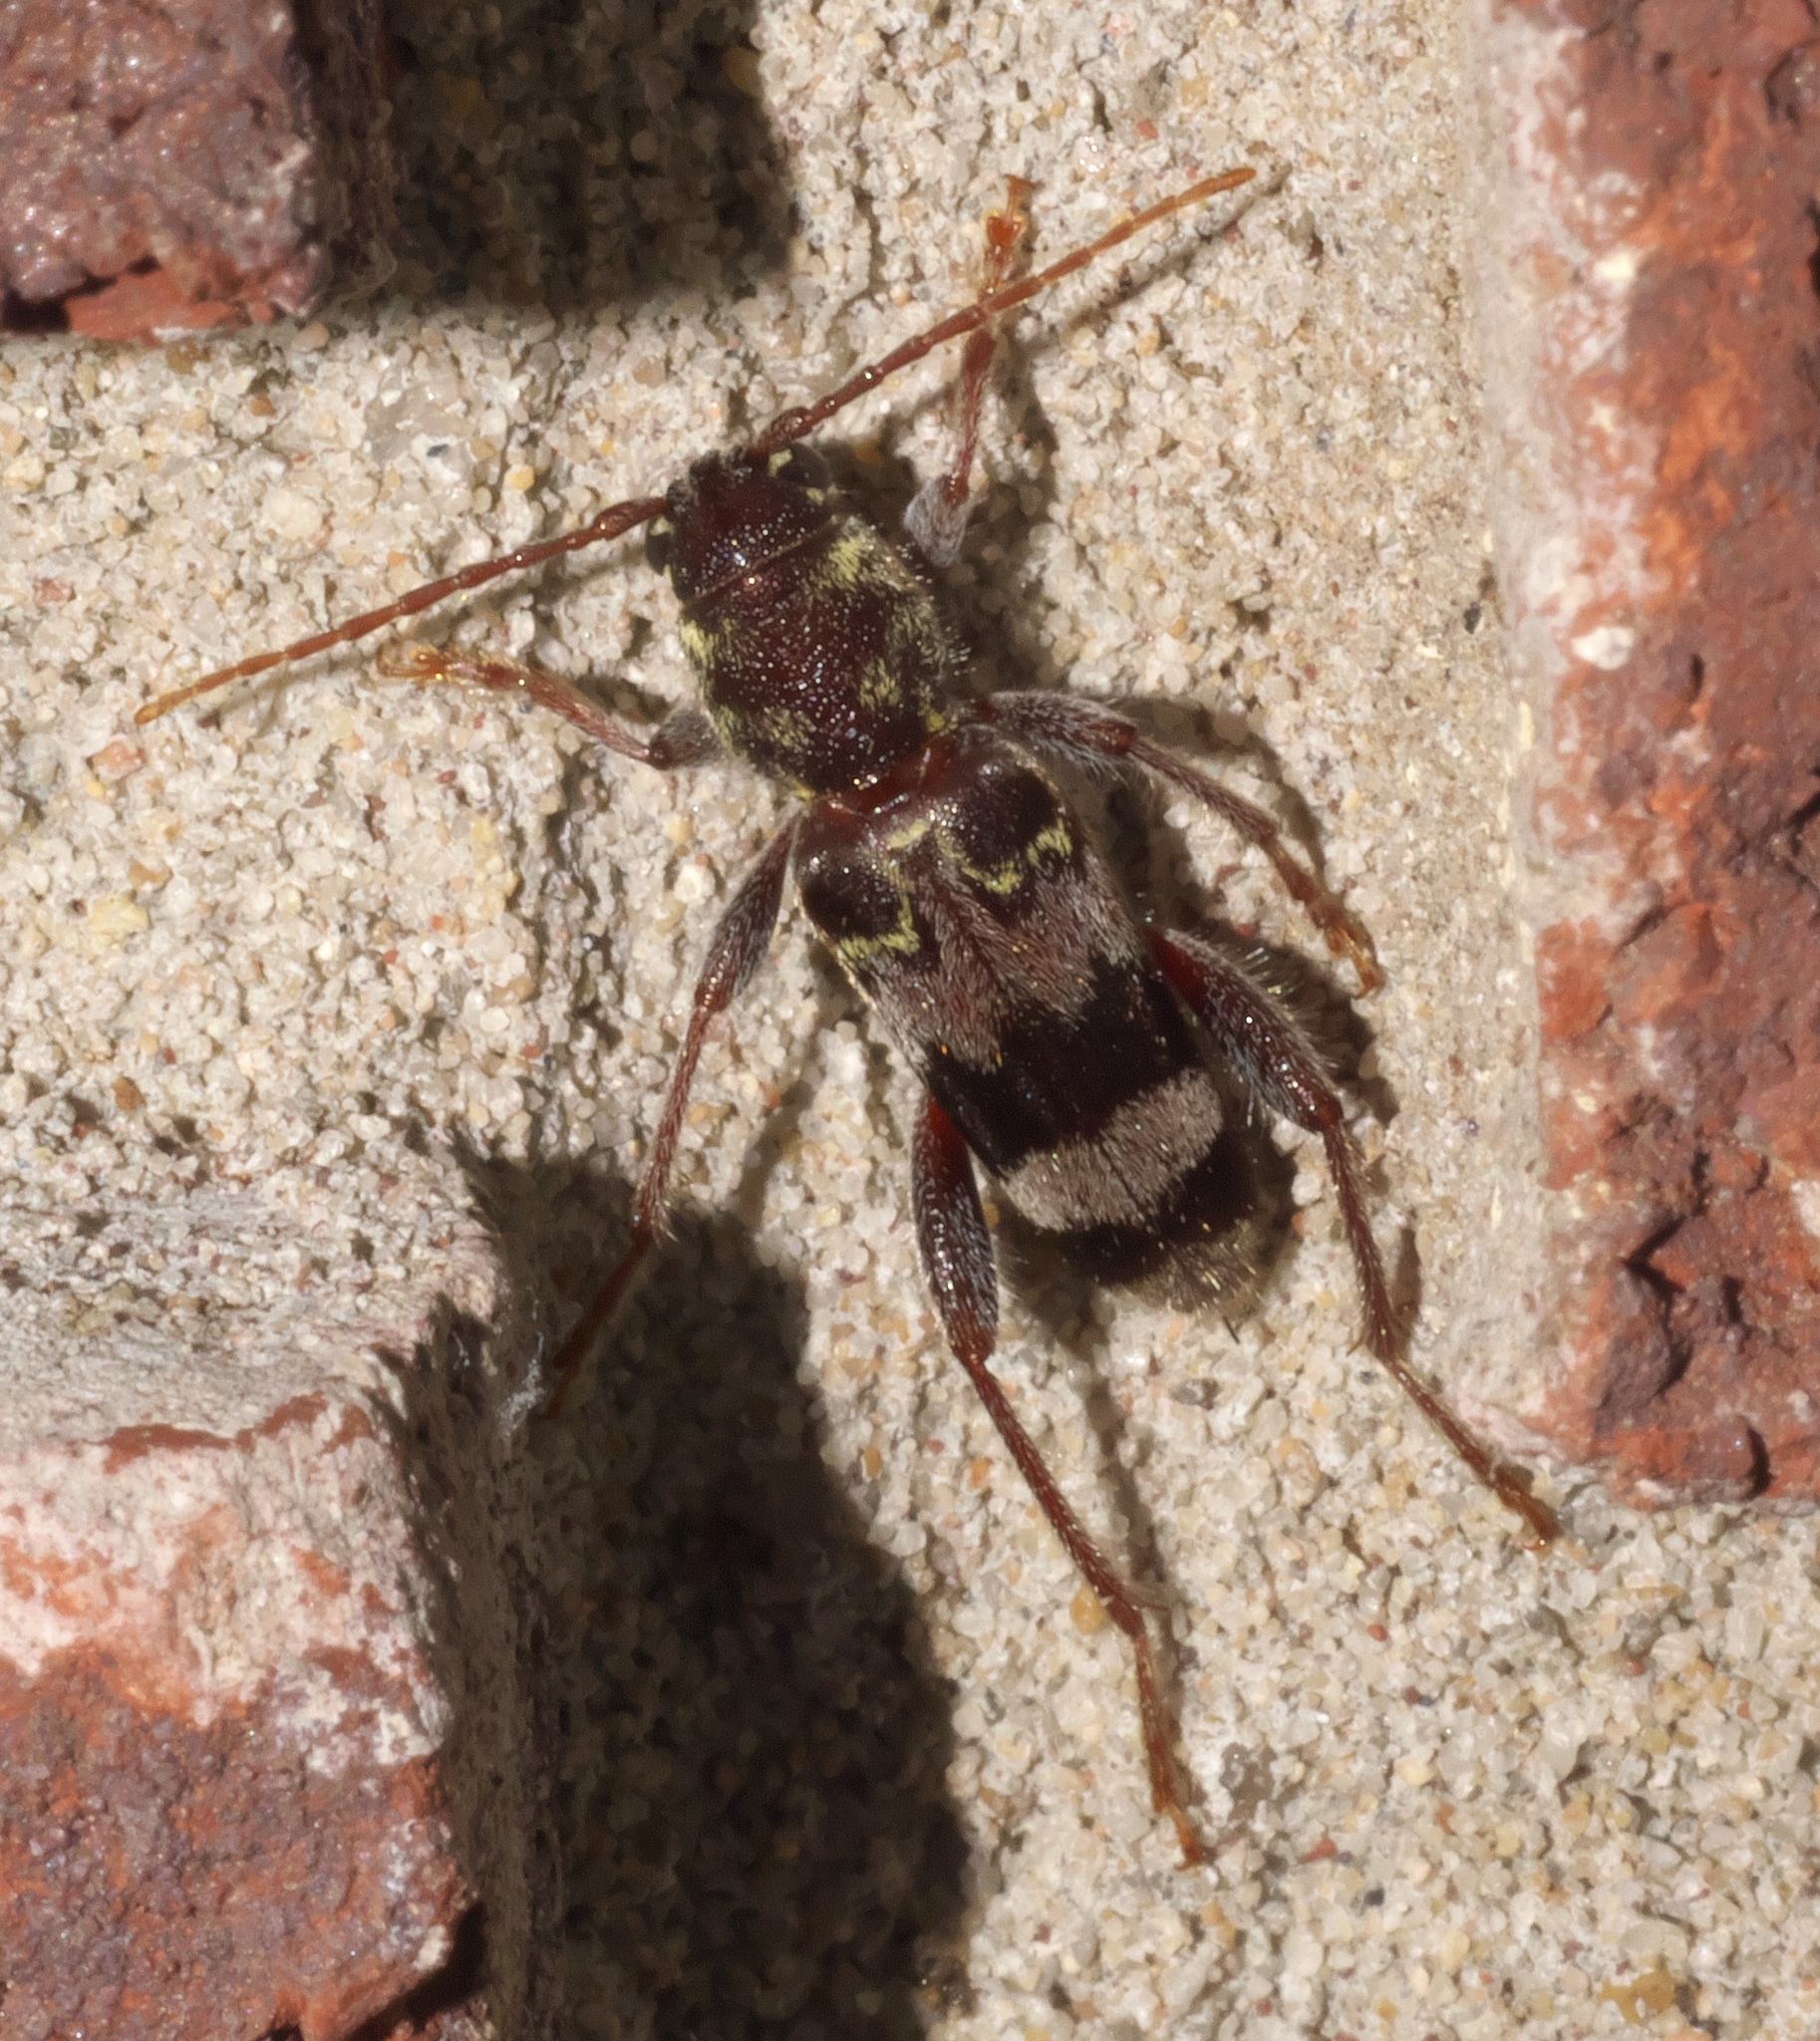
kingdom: Animalia
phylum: Arthropoda
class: Insecta
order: Coleoptera
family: Cerambycidae
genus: Xylotrechus
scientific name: Xylotrechus colonus
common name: Long-horned beetle
